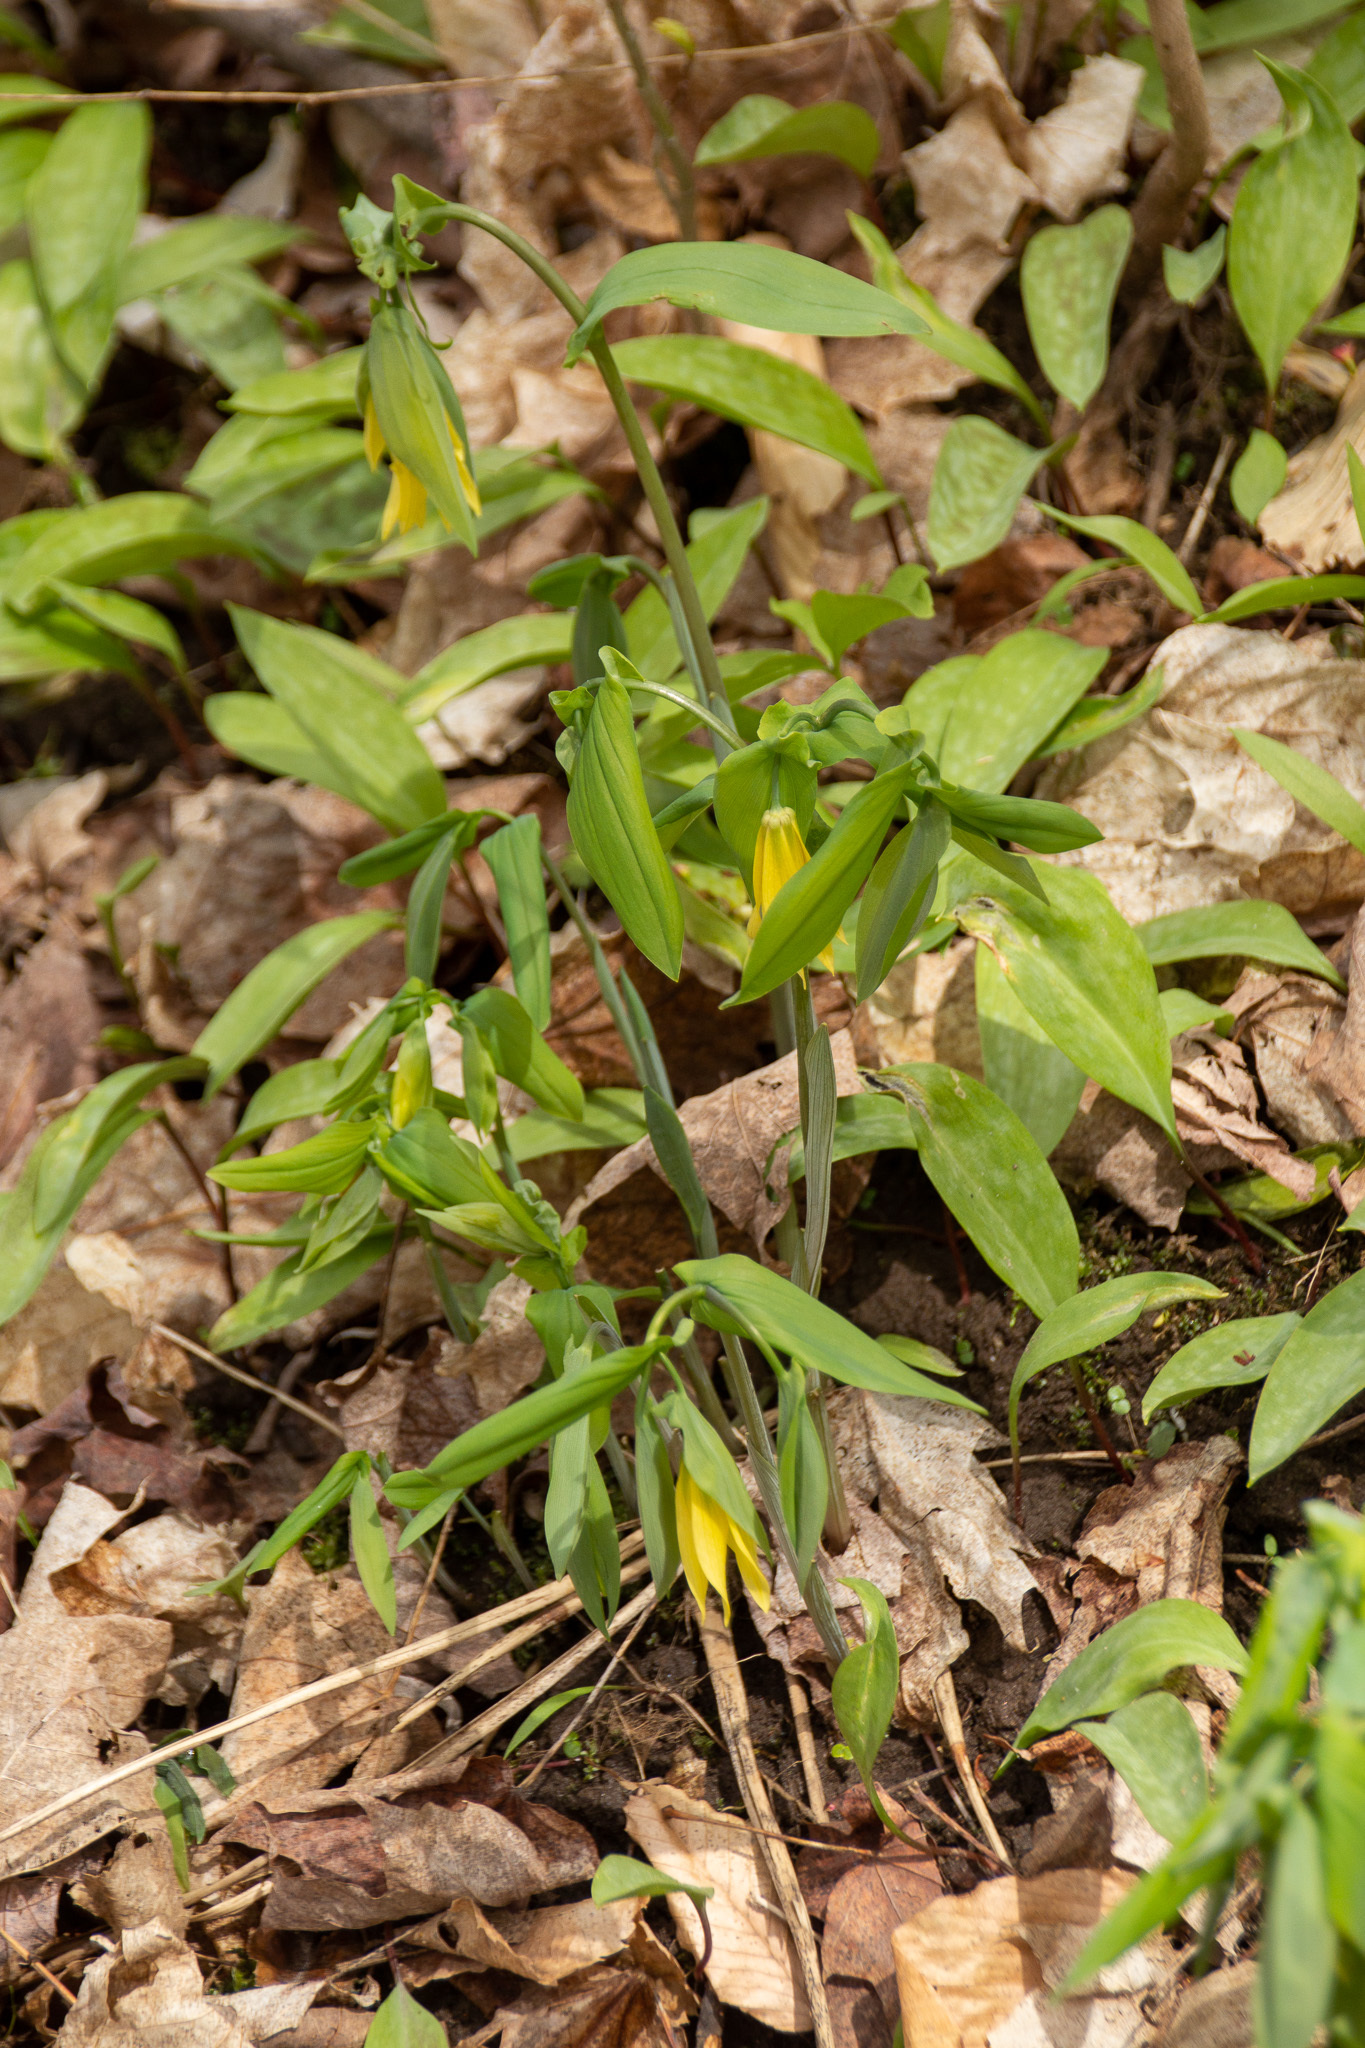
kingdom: Plantae
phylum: Tracheophyta
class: Liliopsida
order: Liliales
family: Colchicaceae
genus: Uvularia
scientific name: Uvularia grandiflora
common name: Bellwort
